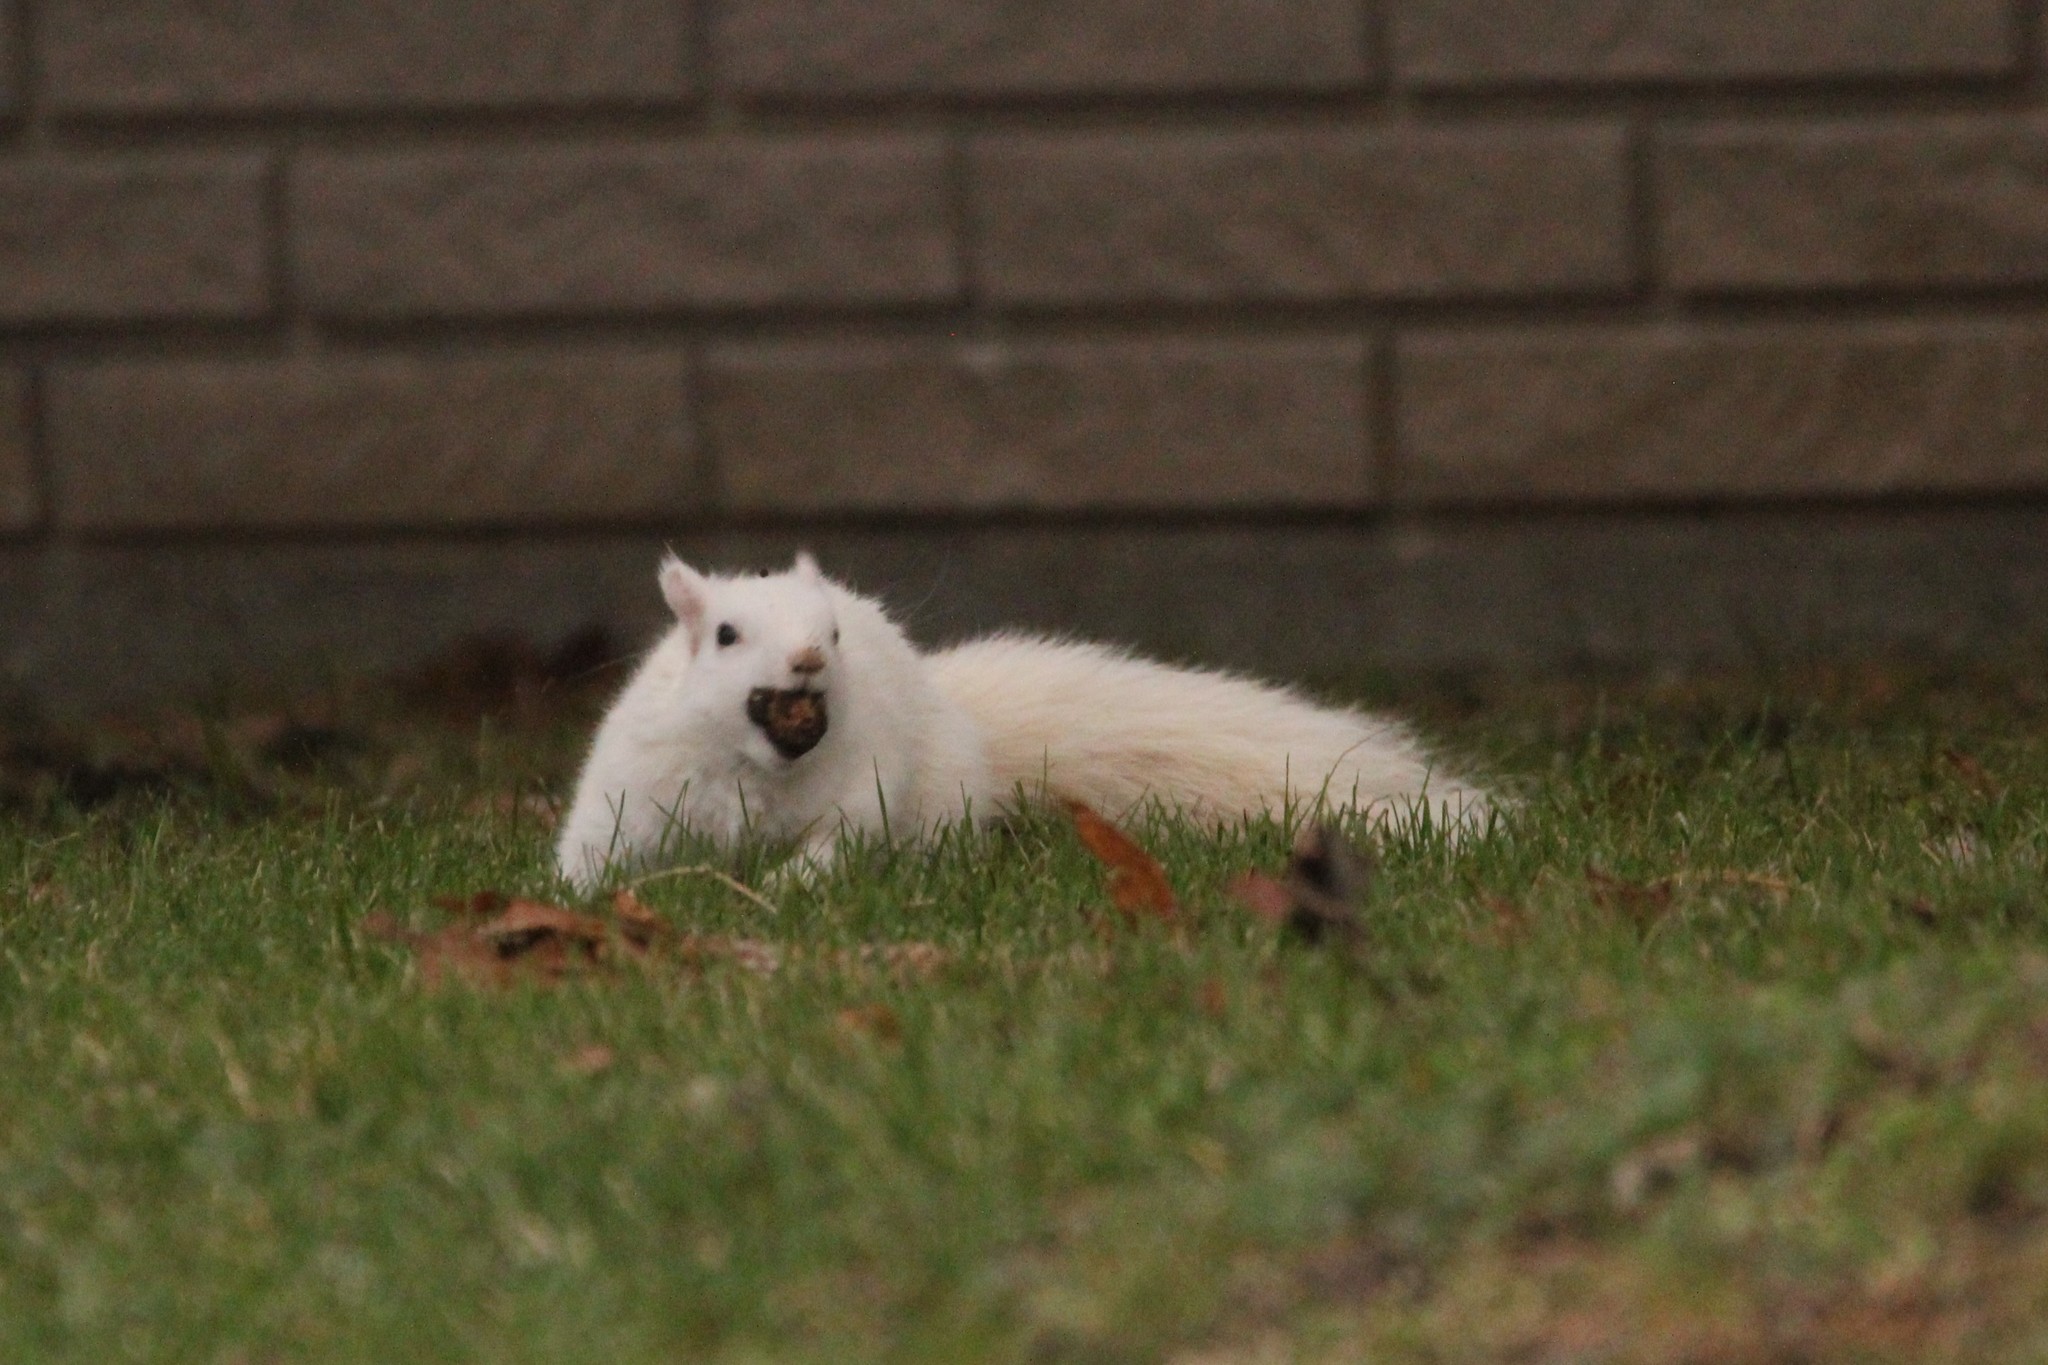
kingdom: Animalia
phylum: Chordata
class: Mammalia
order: Rodentia
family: Sciuridae
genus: Sciurus
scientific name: Sciurus carolinensis
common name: Eastern gray squirrel
